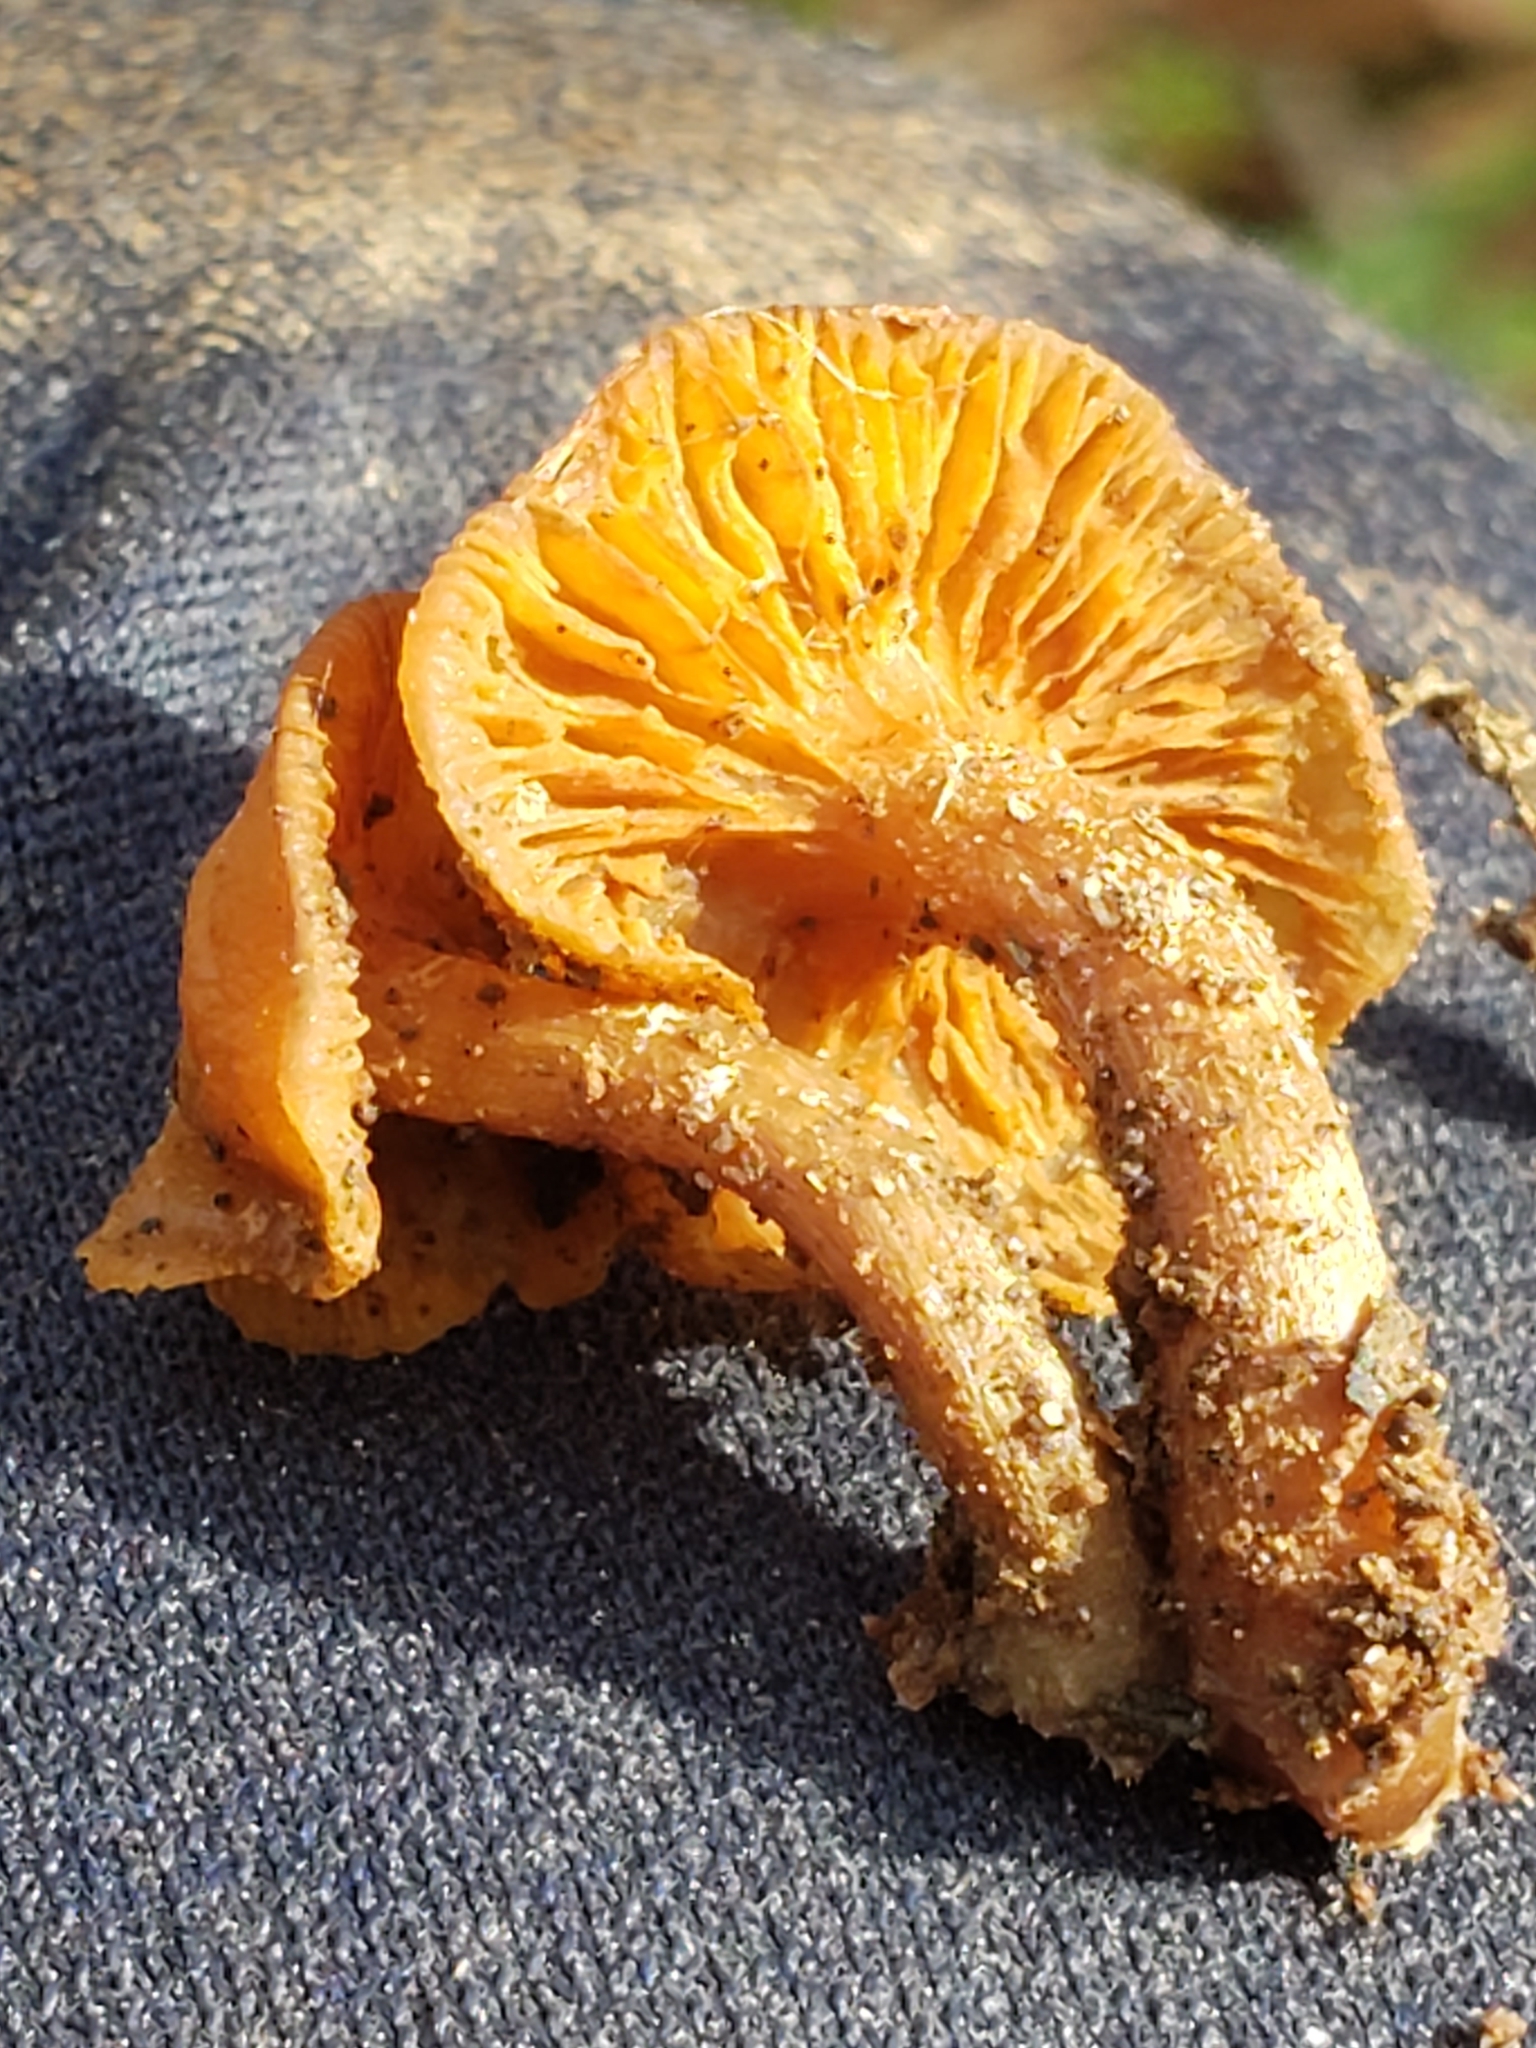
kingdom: Fungi
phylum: Basidiomycota
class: Agaricomycetes
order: Agaricales
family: Hymenogastraceae
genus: Galerina
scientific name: Galerina marginata
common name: Funeral bell
